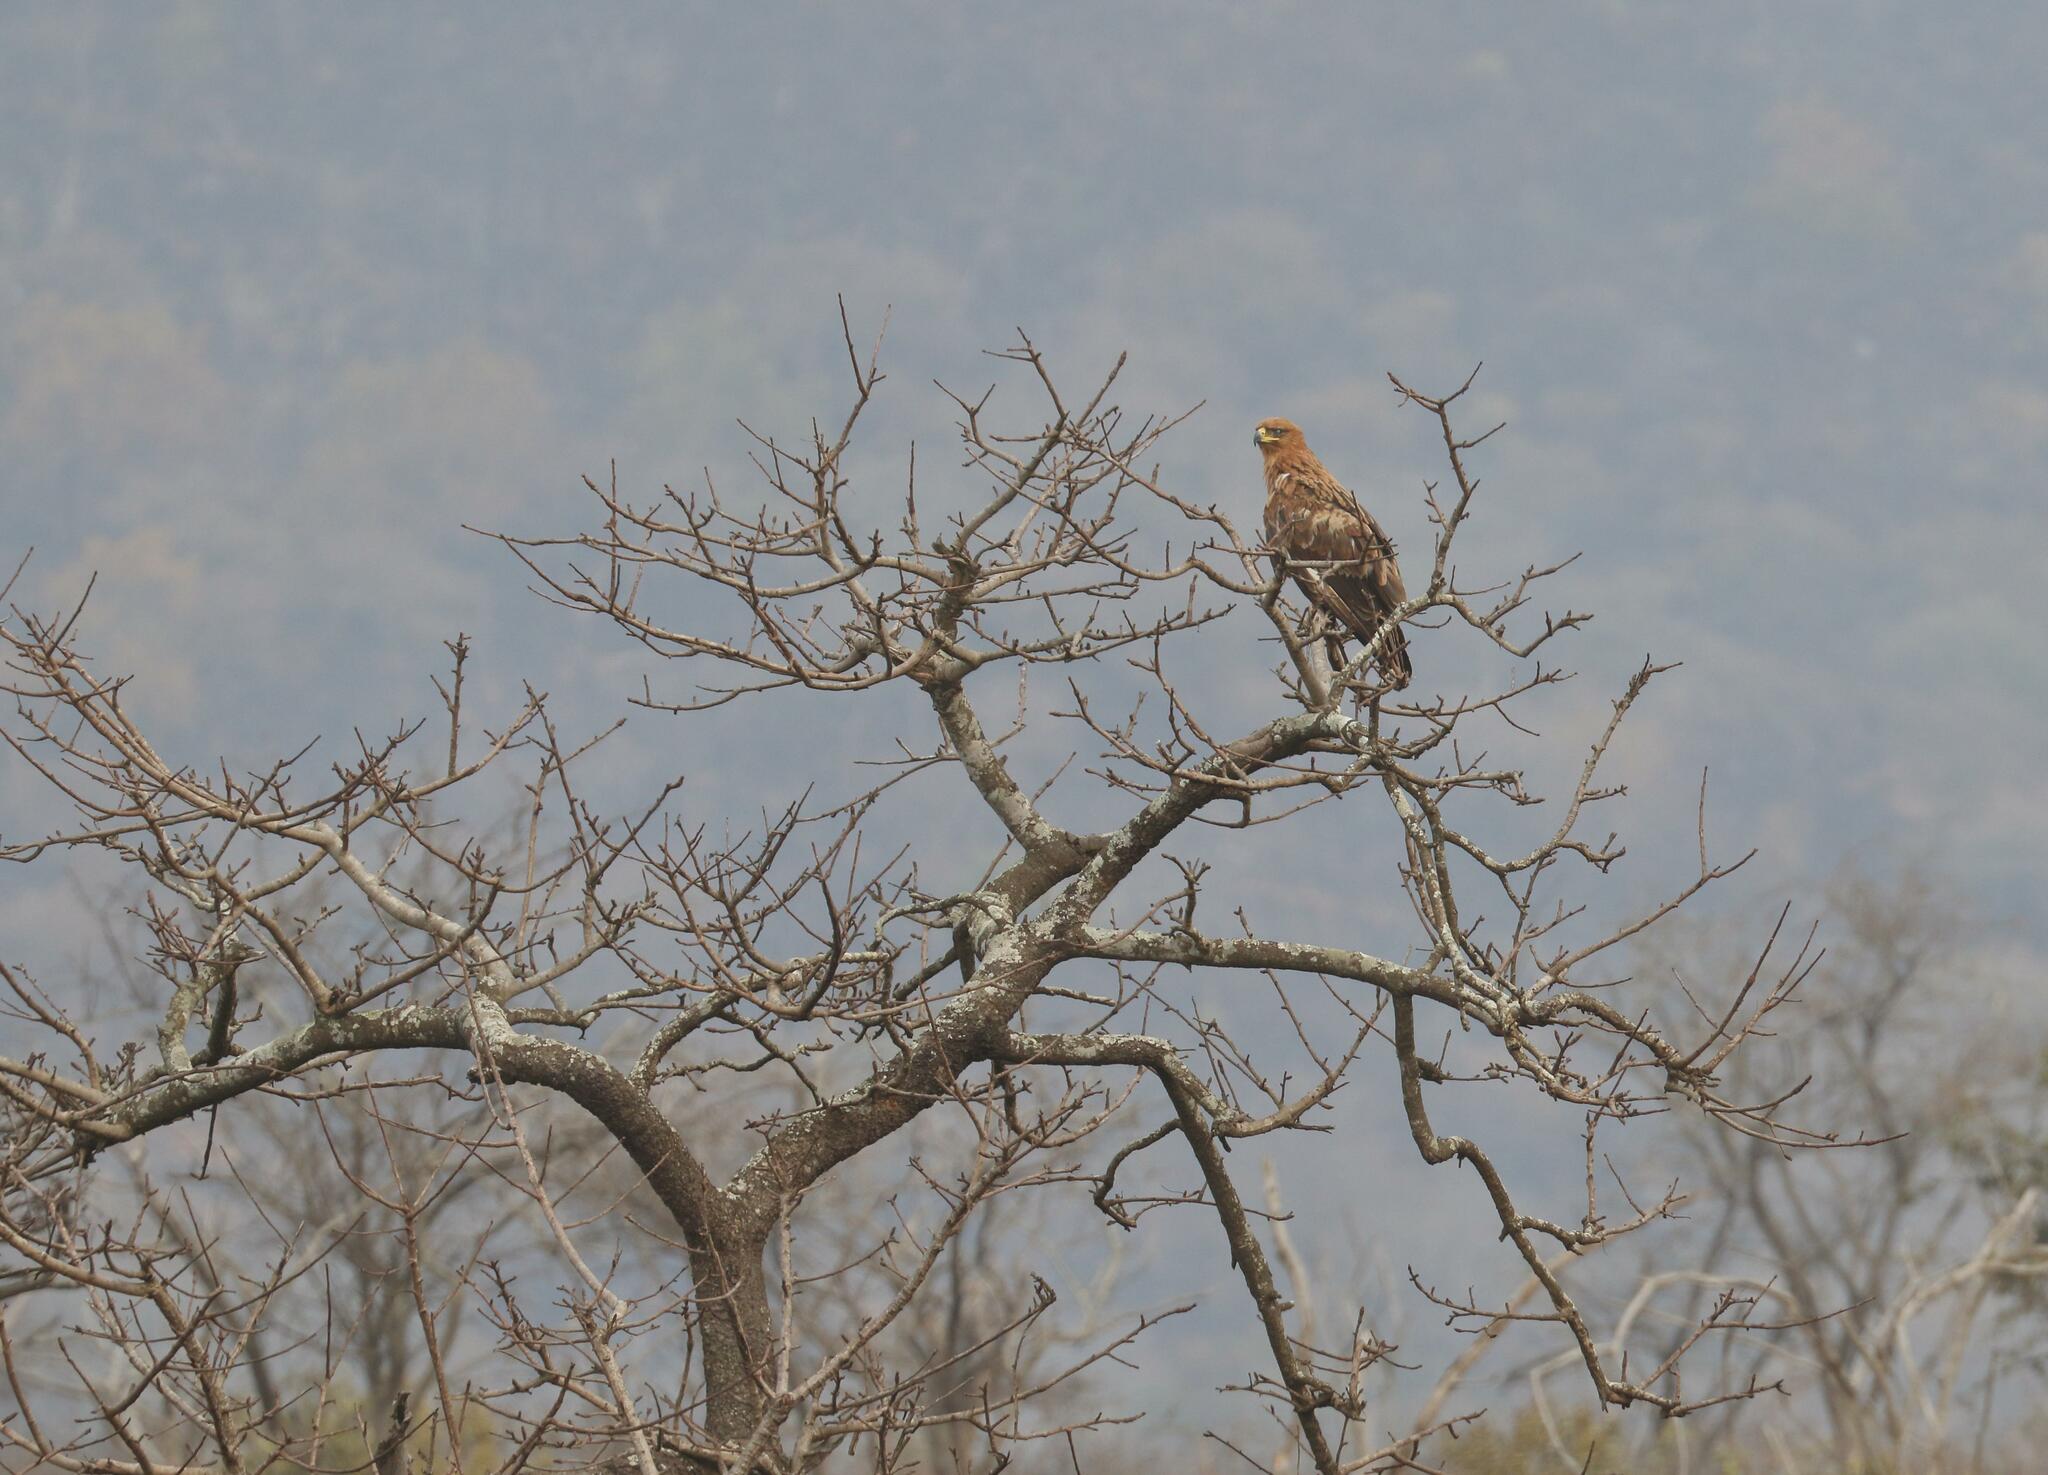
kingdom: Animalia
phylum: Chordata
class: Aves
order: Accipitriformes
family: Accipitridae
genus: Aquila
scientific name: Aquila rapax
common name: Tawny eagle
